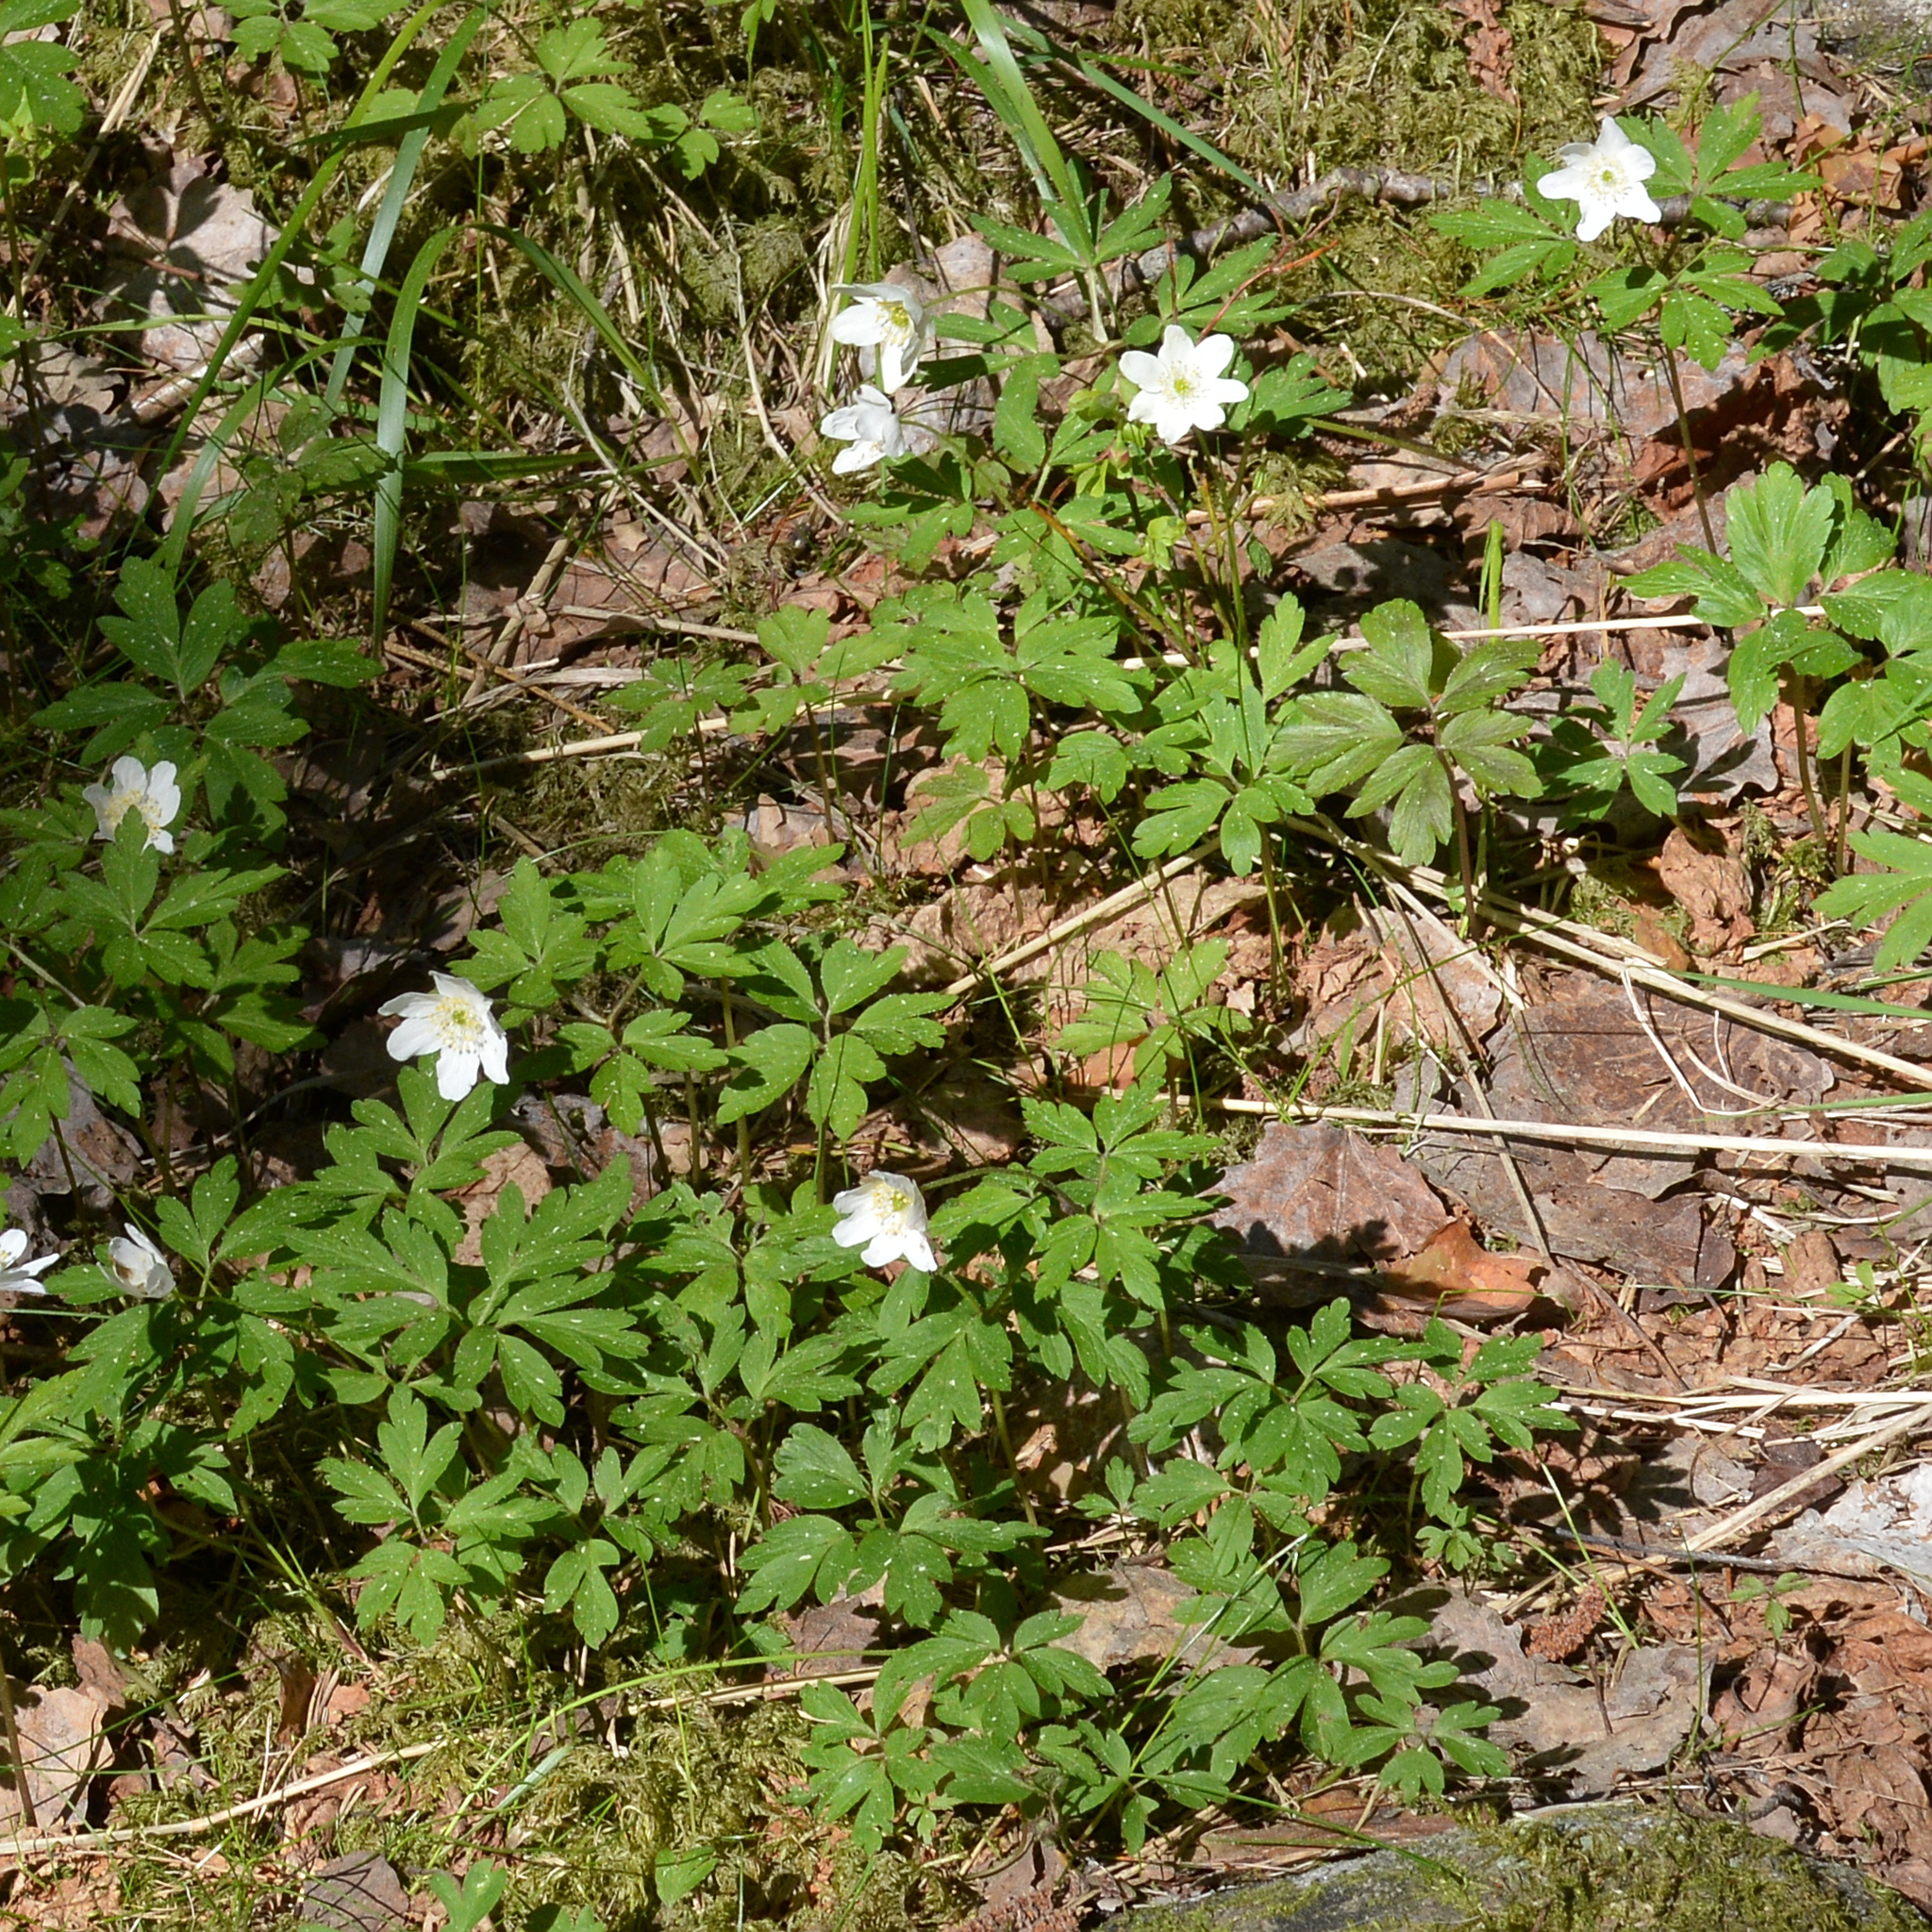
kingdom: Plantae
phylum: Tracheophyta
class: Magnoliopsida
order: Ranunculales
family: Ranunculaceae
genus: Anemone
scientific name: Anemone nemorosa
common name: Wood anemone
